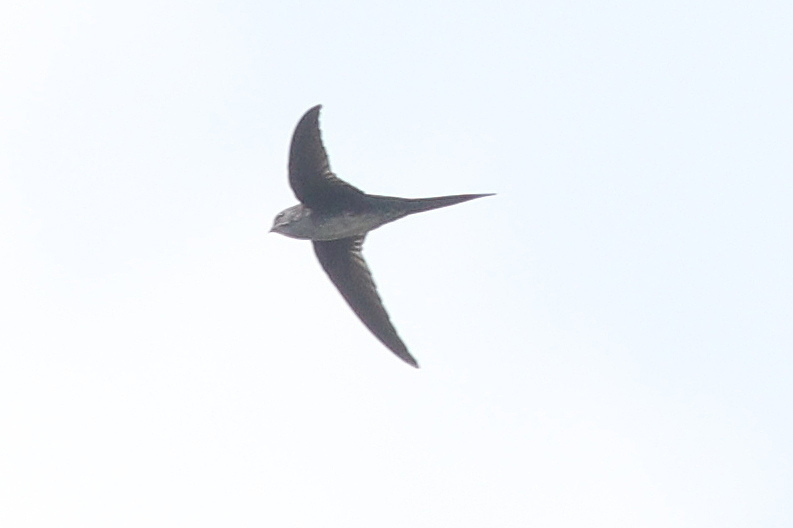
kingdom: Animalia
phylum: Chordata
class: Aves
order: Apodiformes
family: Apodidae
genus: Tachornis
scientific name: Tachornis squamata
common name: Neotropical palm swift
